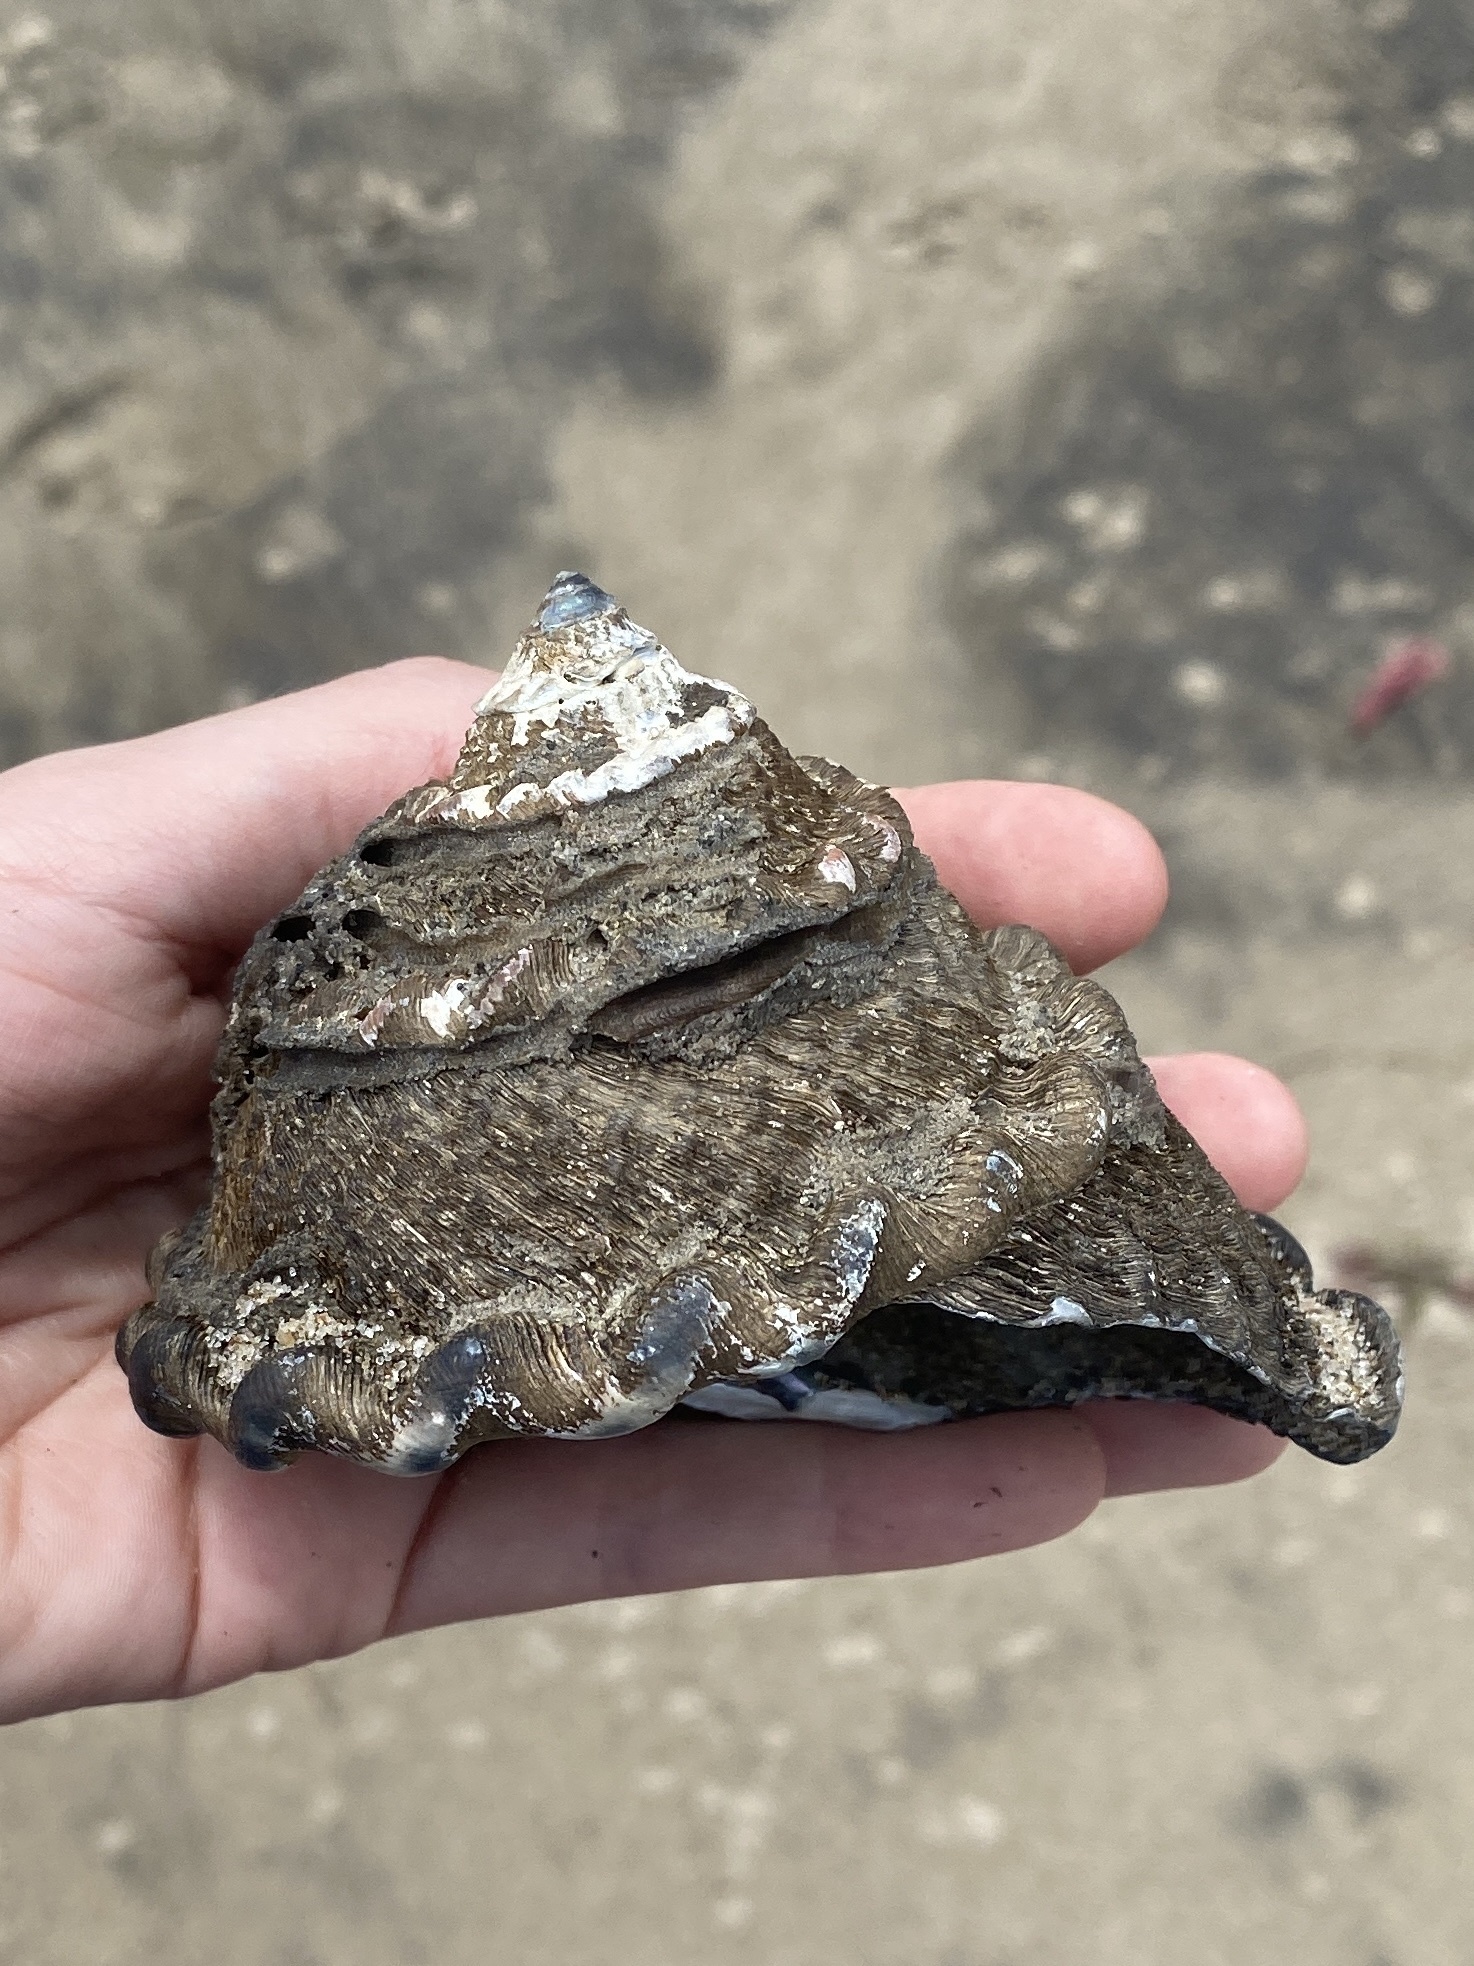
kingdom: Animalia
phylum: Mollusca
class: Gastropoda
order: Trochida
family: Turbinidae
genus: Megastraea
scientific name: Megastraea undosa
